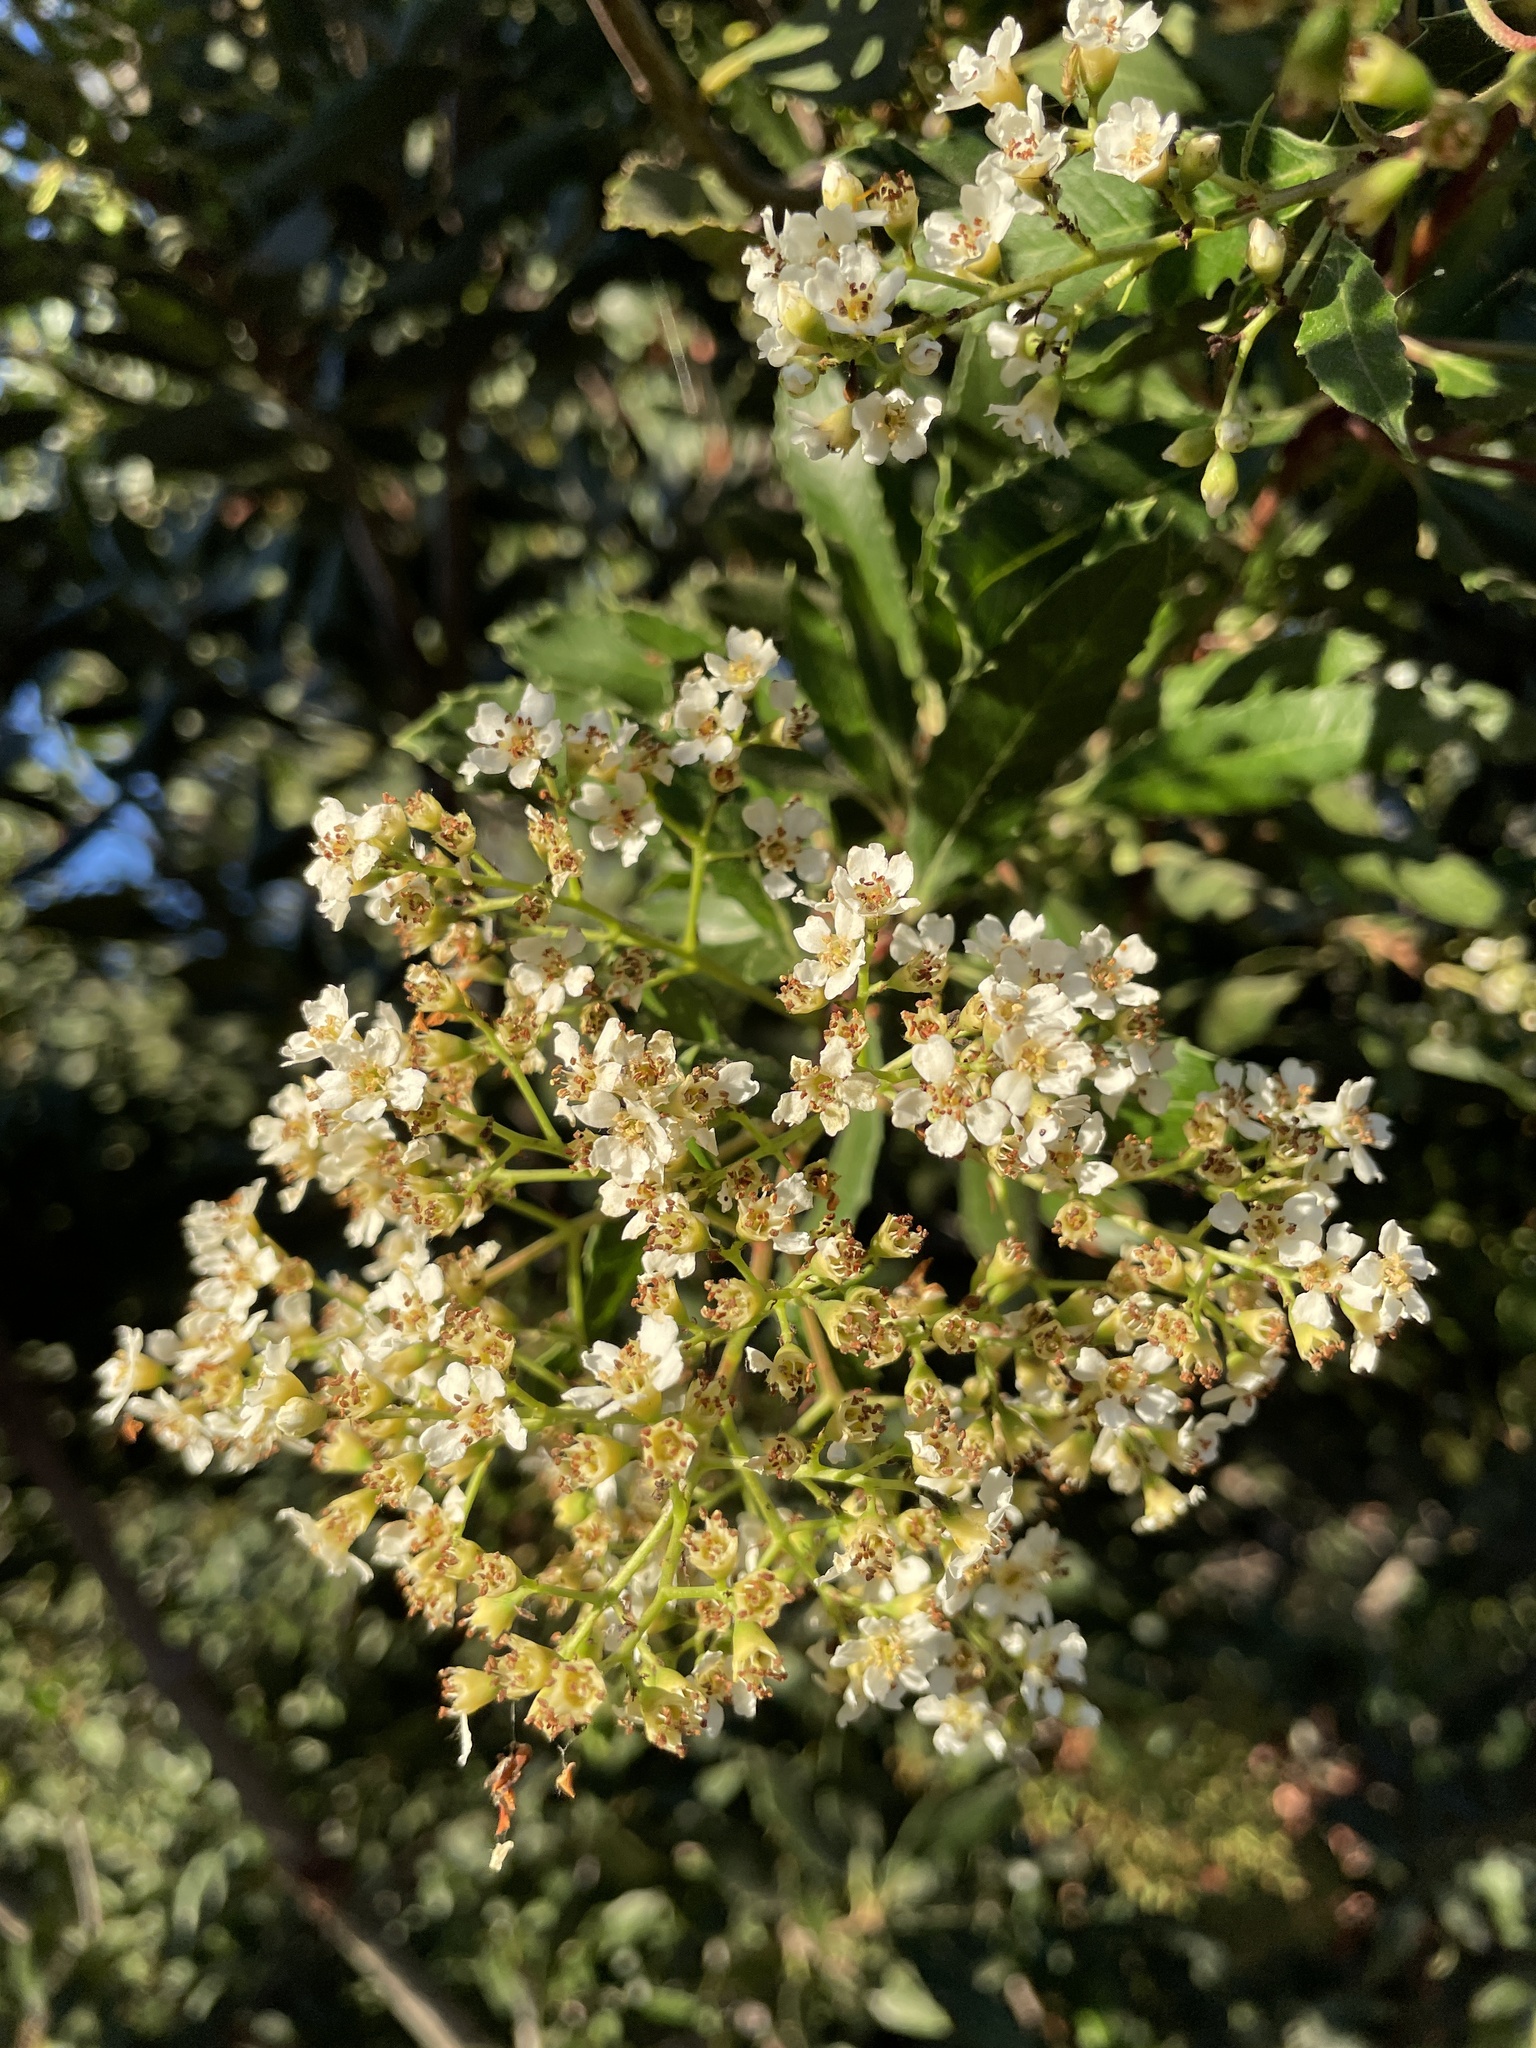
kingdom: Plantae
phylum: Tracheophyta
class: Magnoliopsida
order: Rosales
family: Rosaceae
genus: Heteromeles
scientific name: Heteromeles arbutifolia
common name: California-holly
